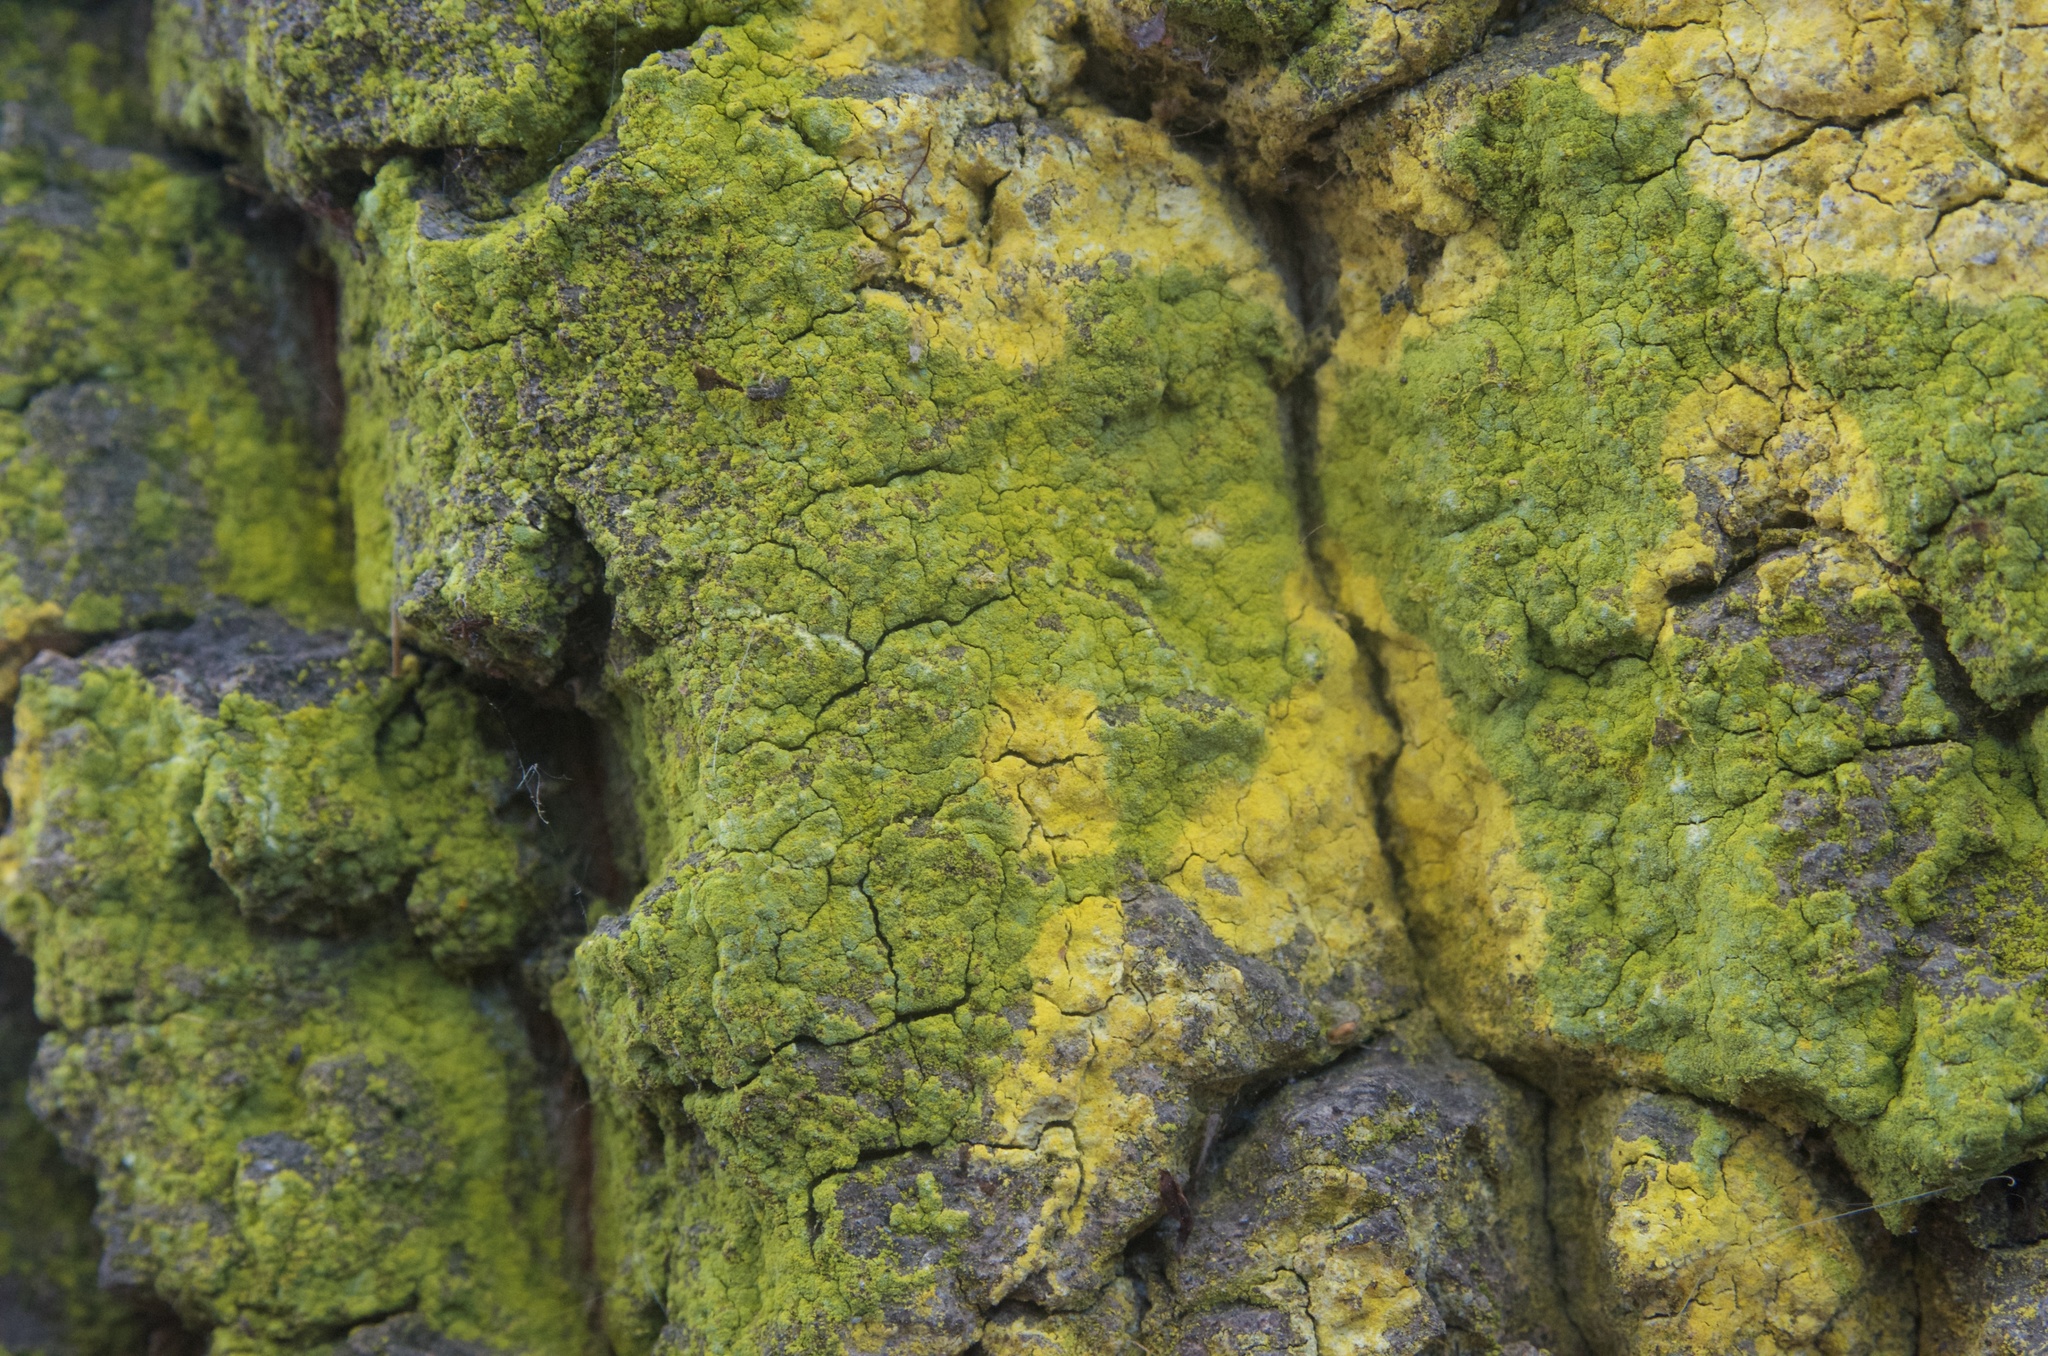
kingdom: Fungi
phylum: Ascomycota
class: Arthoniomycetes
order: Arthoniales
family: Chrysotrichaceae
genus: Chrysothrix
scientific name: Chrysothrix candelaris
